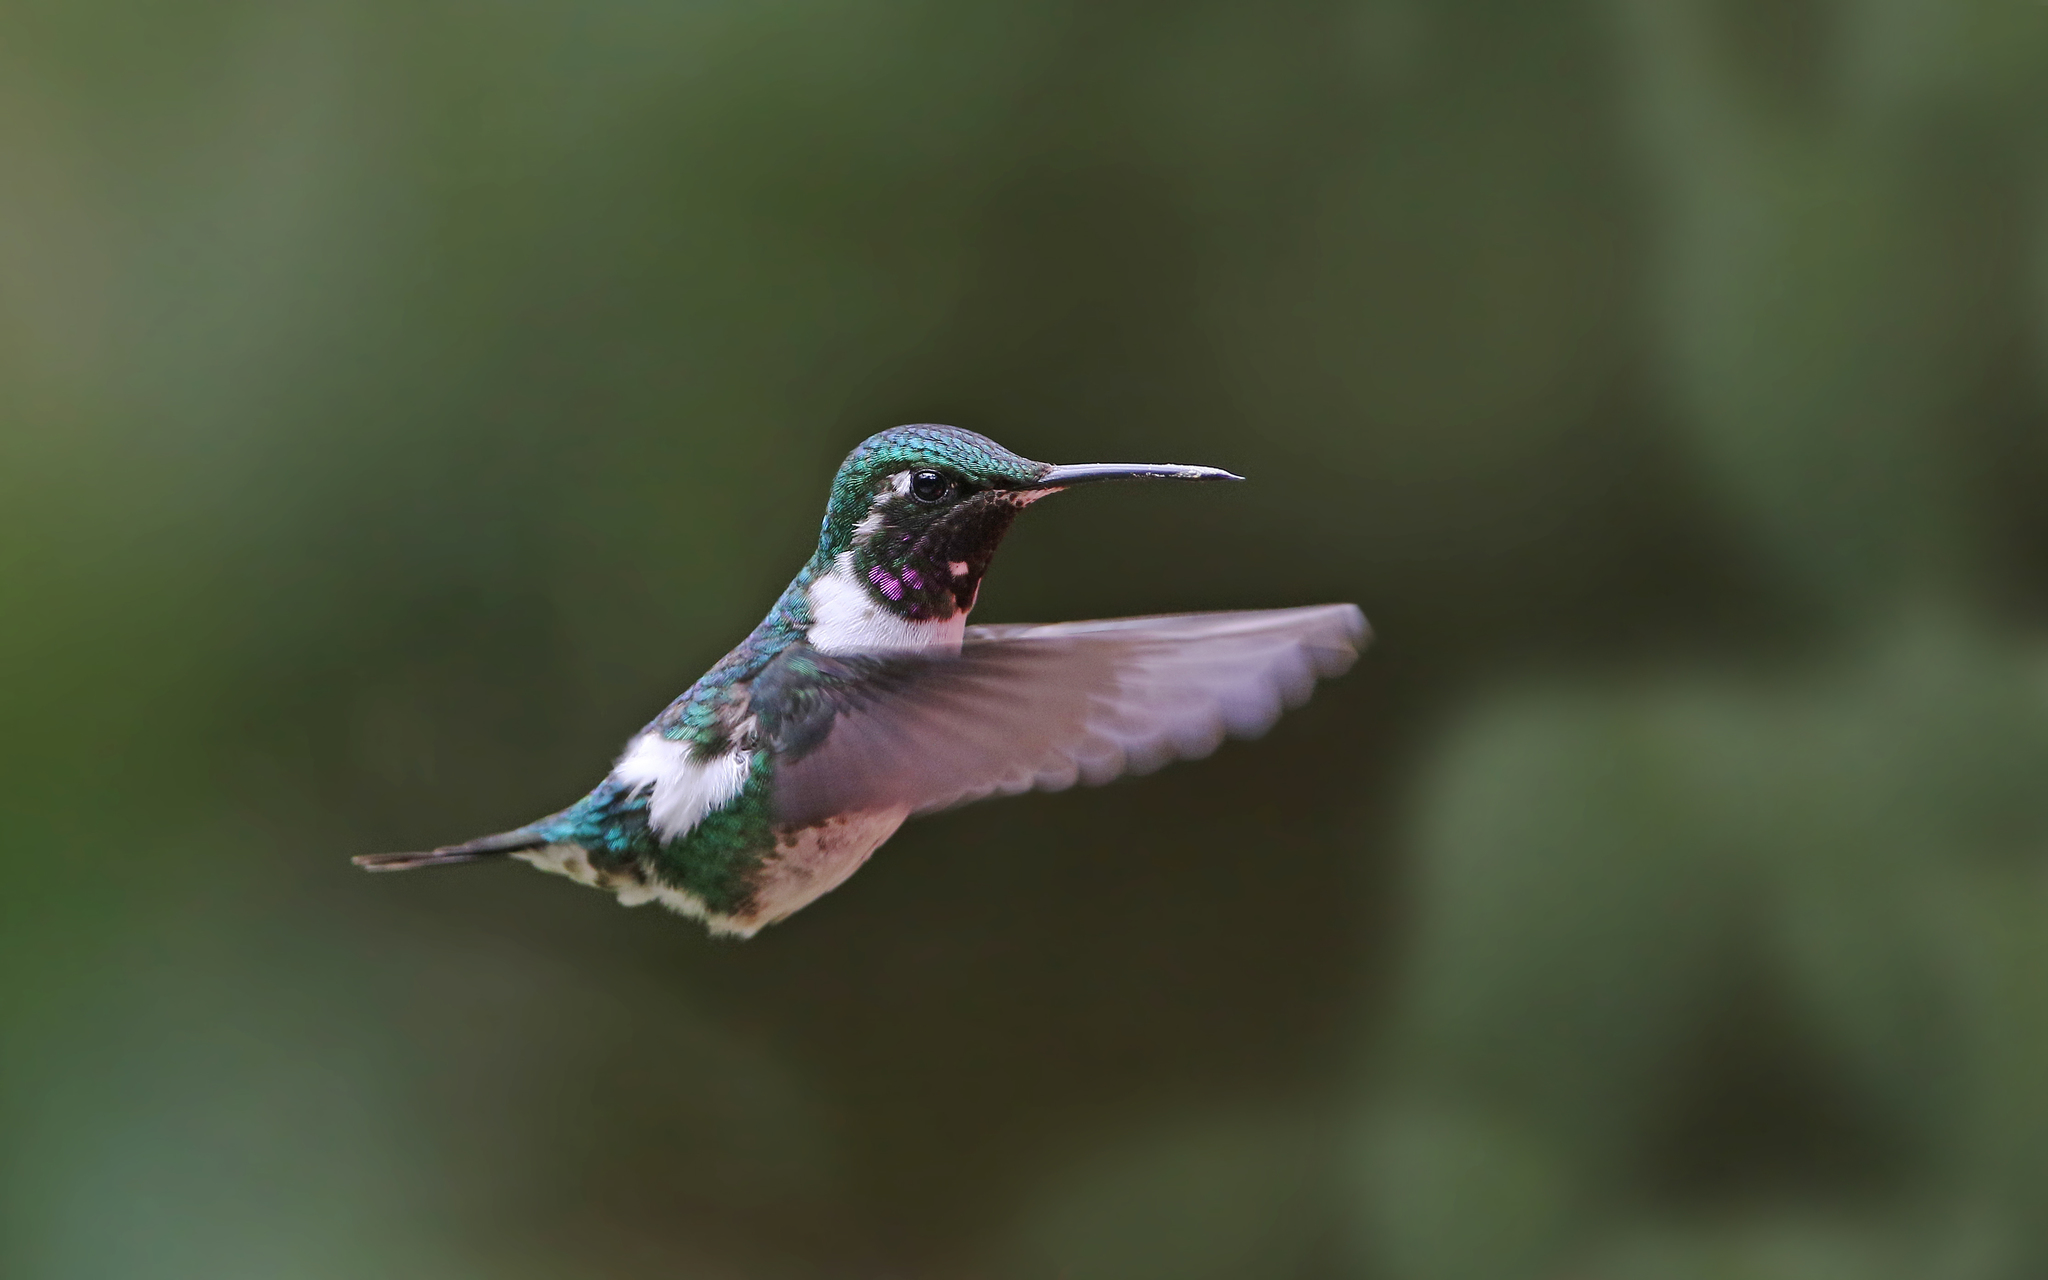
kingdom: Animalia
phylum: Chordata
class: Aves
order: Apodiformes
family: Trochilidae
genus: Chaetocercus
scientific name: Chaetocercus mulsant
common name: White-bellied woodstar
